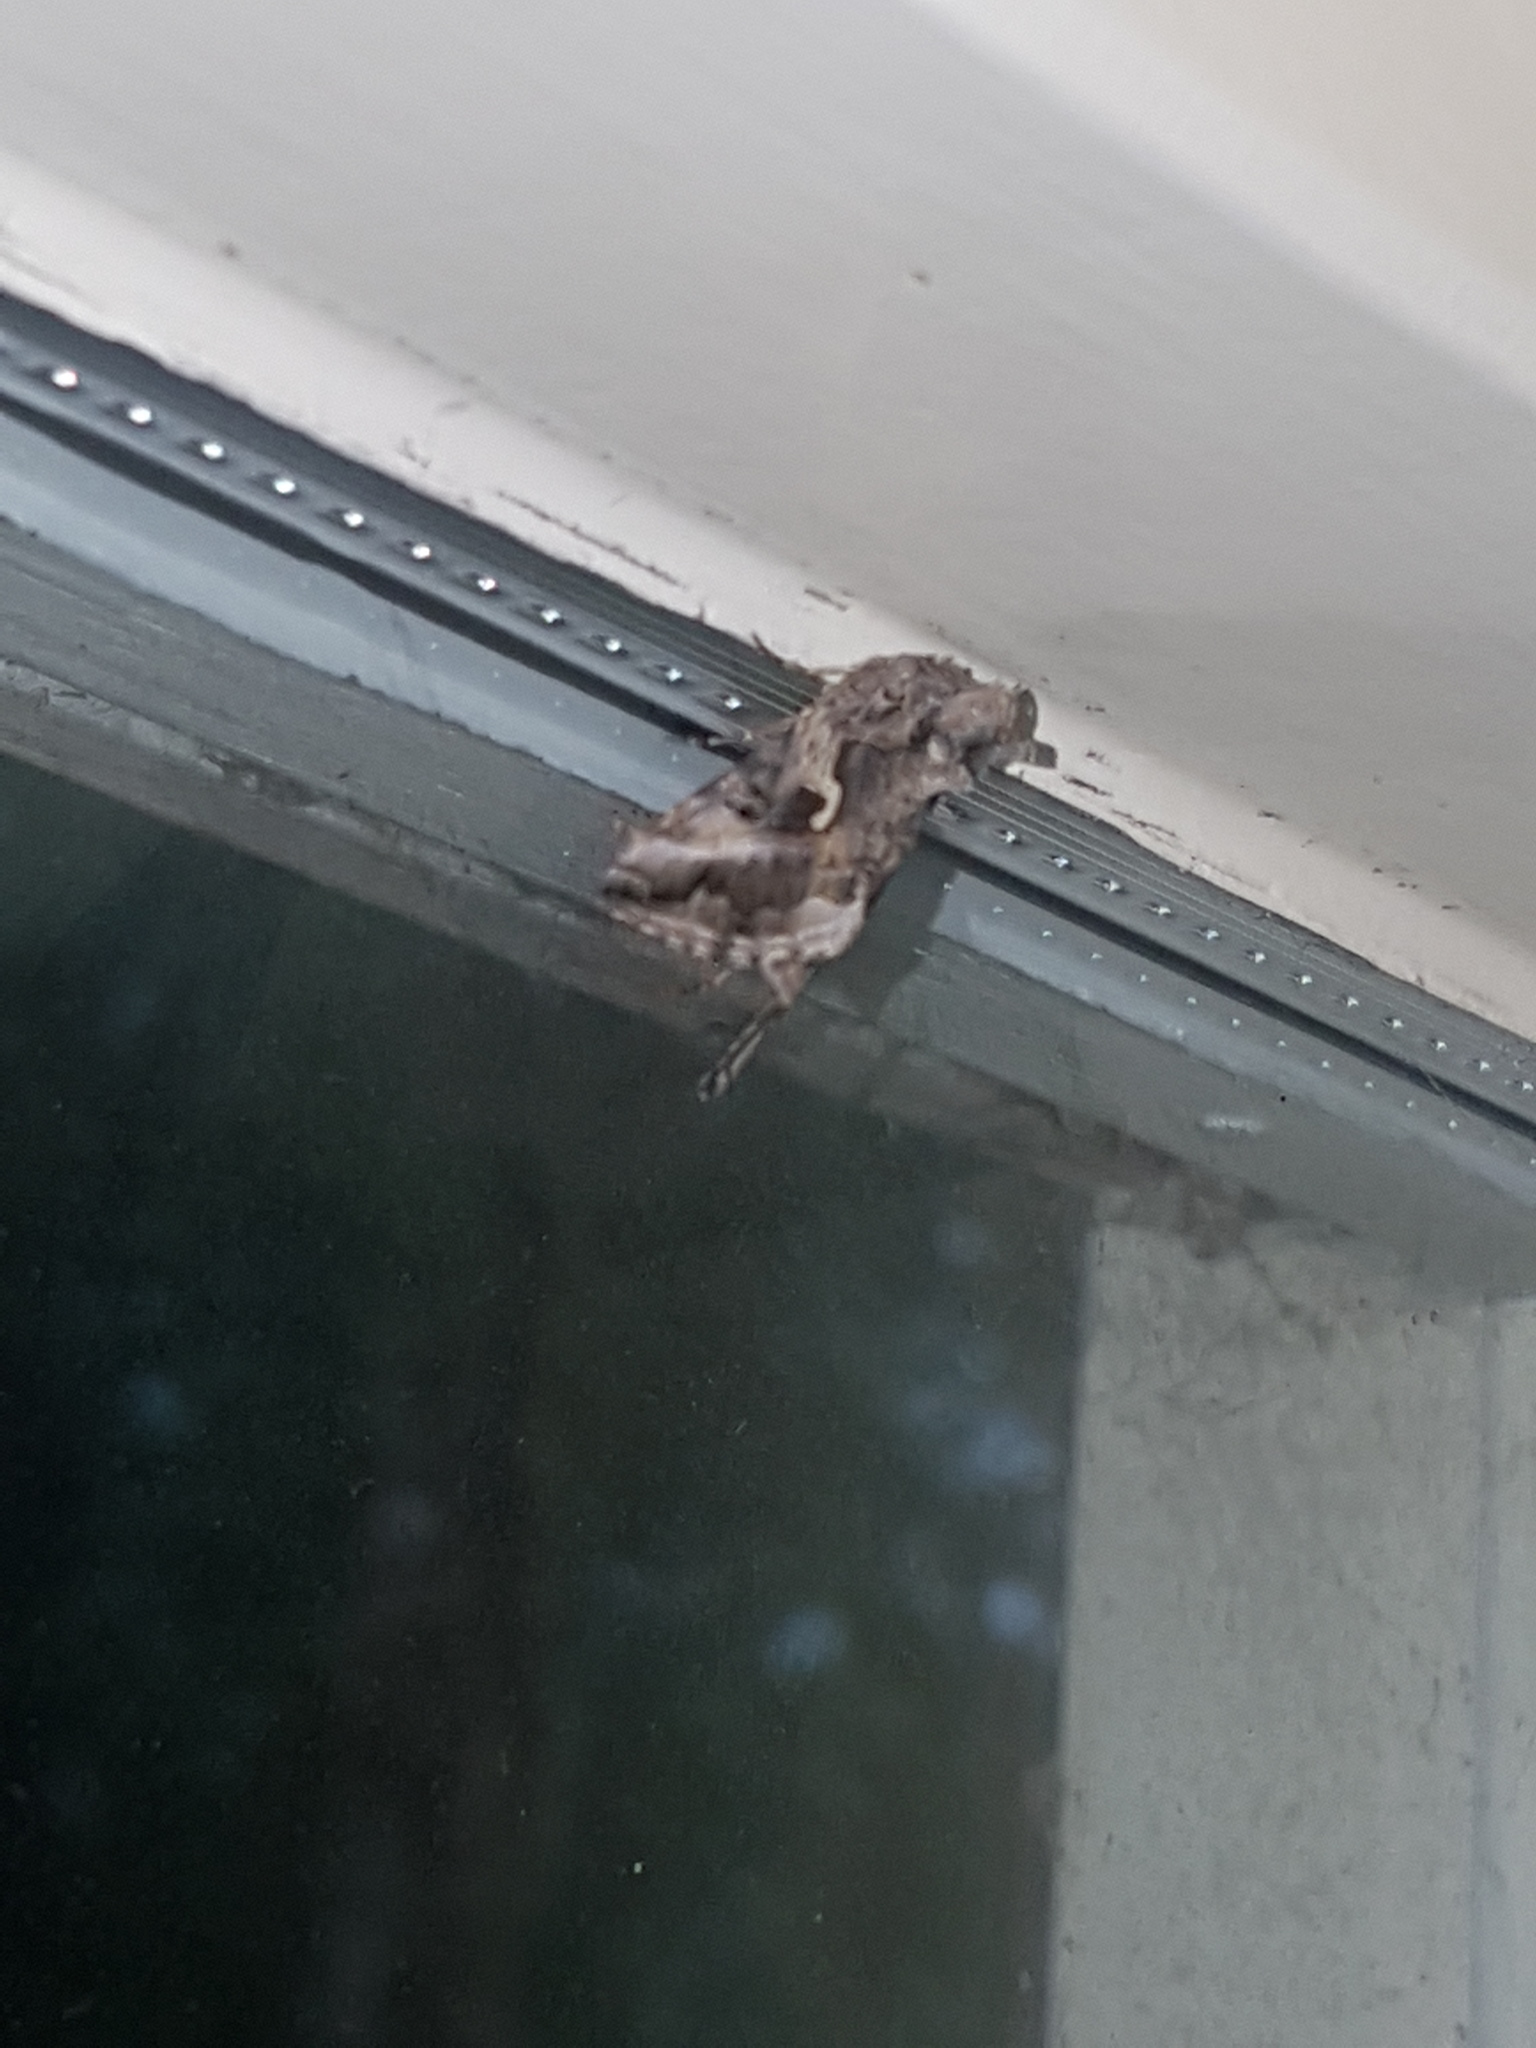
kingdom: Animalia
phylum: Arthropoda
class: Insecta
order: Lepidoptera
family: Noctuidae
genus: Autographa
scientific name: Autographa gamma
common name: Silver y
